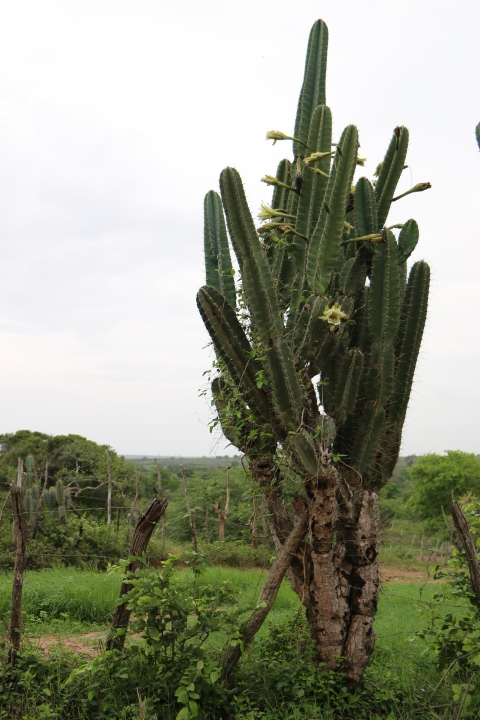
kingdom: Plantae
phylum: Tracheophyta
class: Magnoliopsida
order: Caryophyllales
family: Cactaceae
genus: Cereus
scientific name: Cereus jamacaru
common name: Queen-of-the-night
